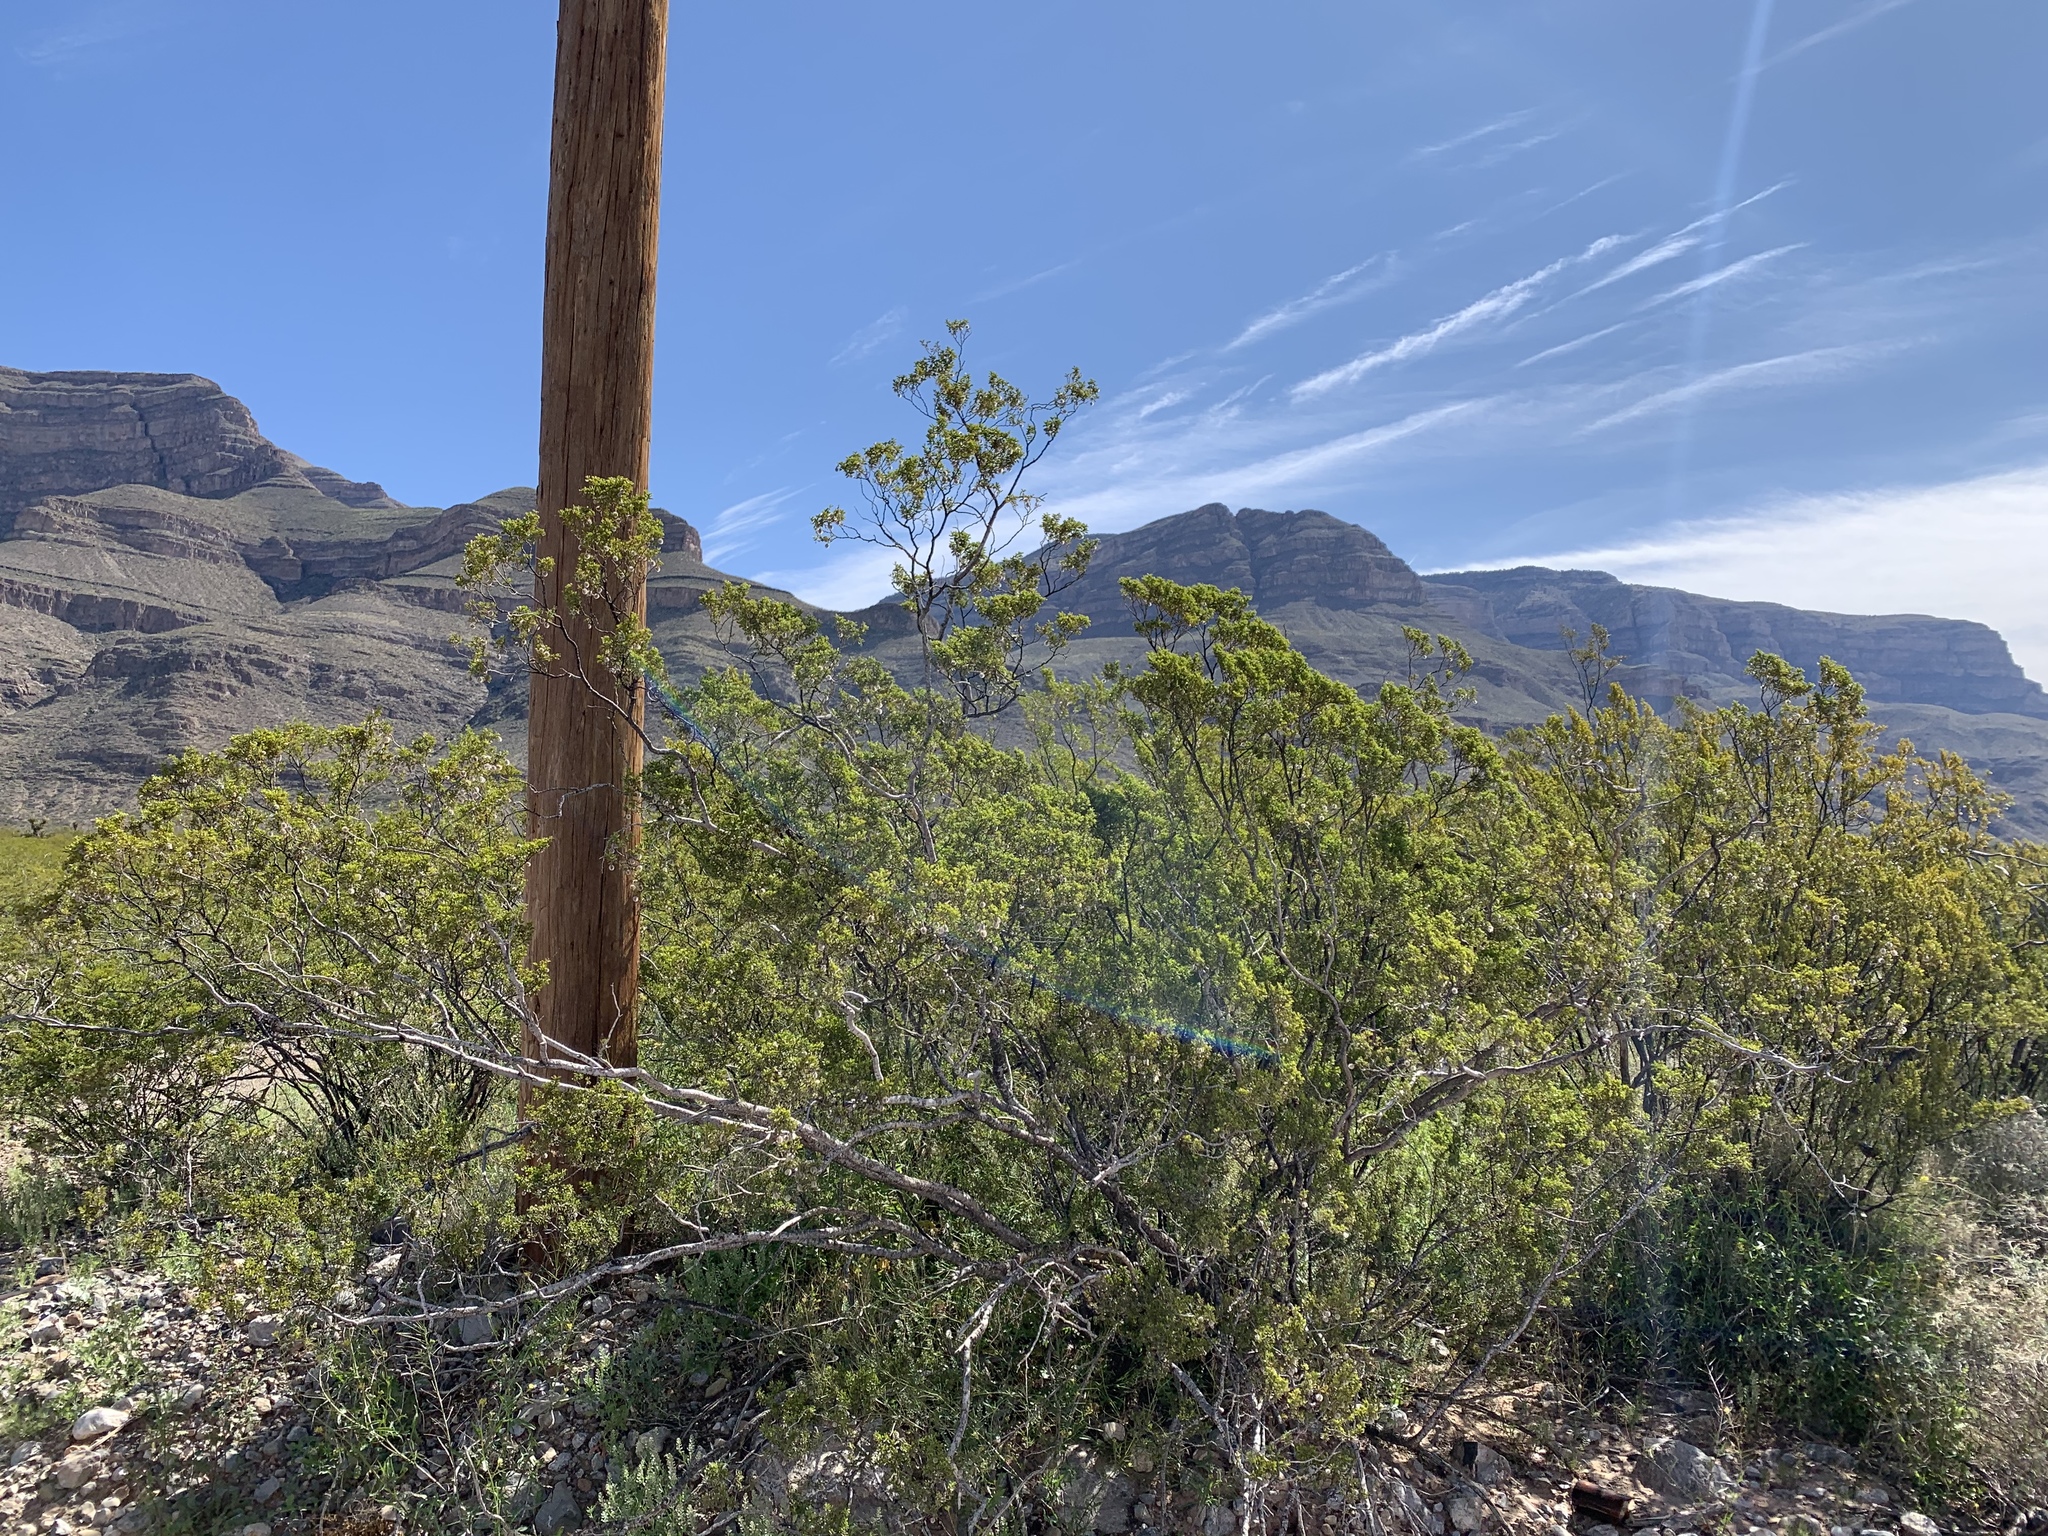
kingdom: Plantae
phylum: Tracheophyta
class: Magnoliopsida
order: Zygophyllales
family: Zygophyllaceae
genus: Larrea
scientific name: Larrea tridentata
